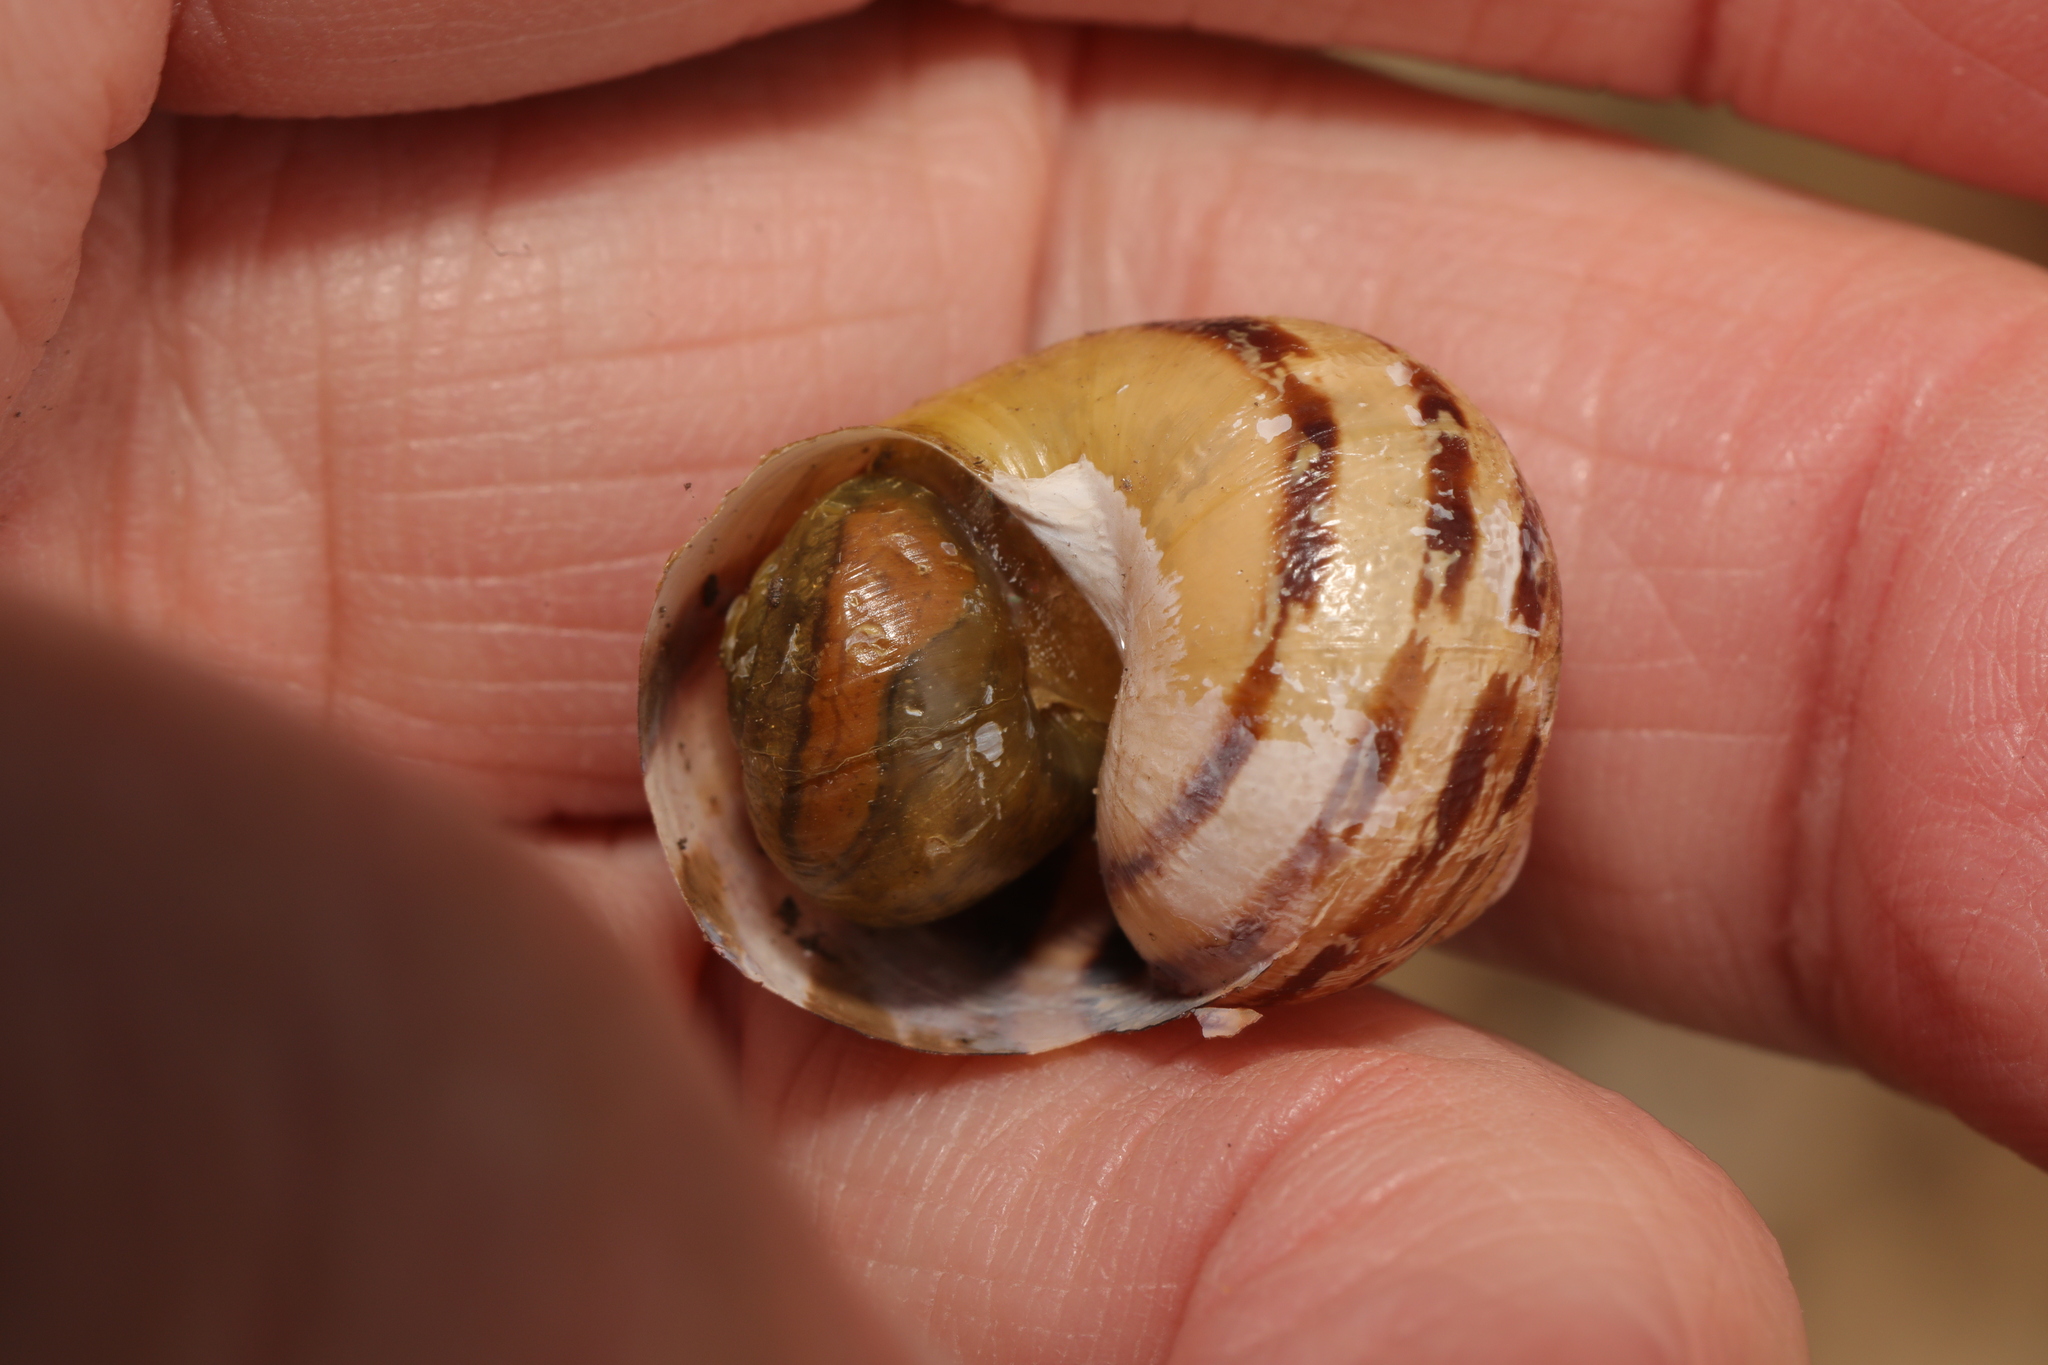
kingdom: Animalia
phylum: Mollusca
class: Gastropoda
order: Stylommatophora
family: Helicidae
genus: Cornu
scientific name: Cornu aspersum
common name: Brown garden snail
